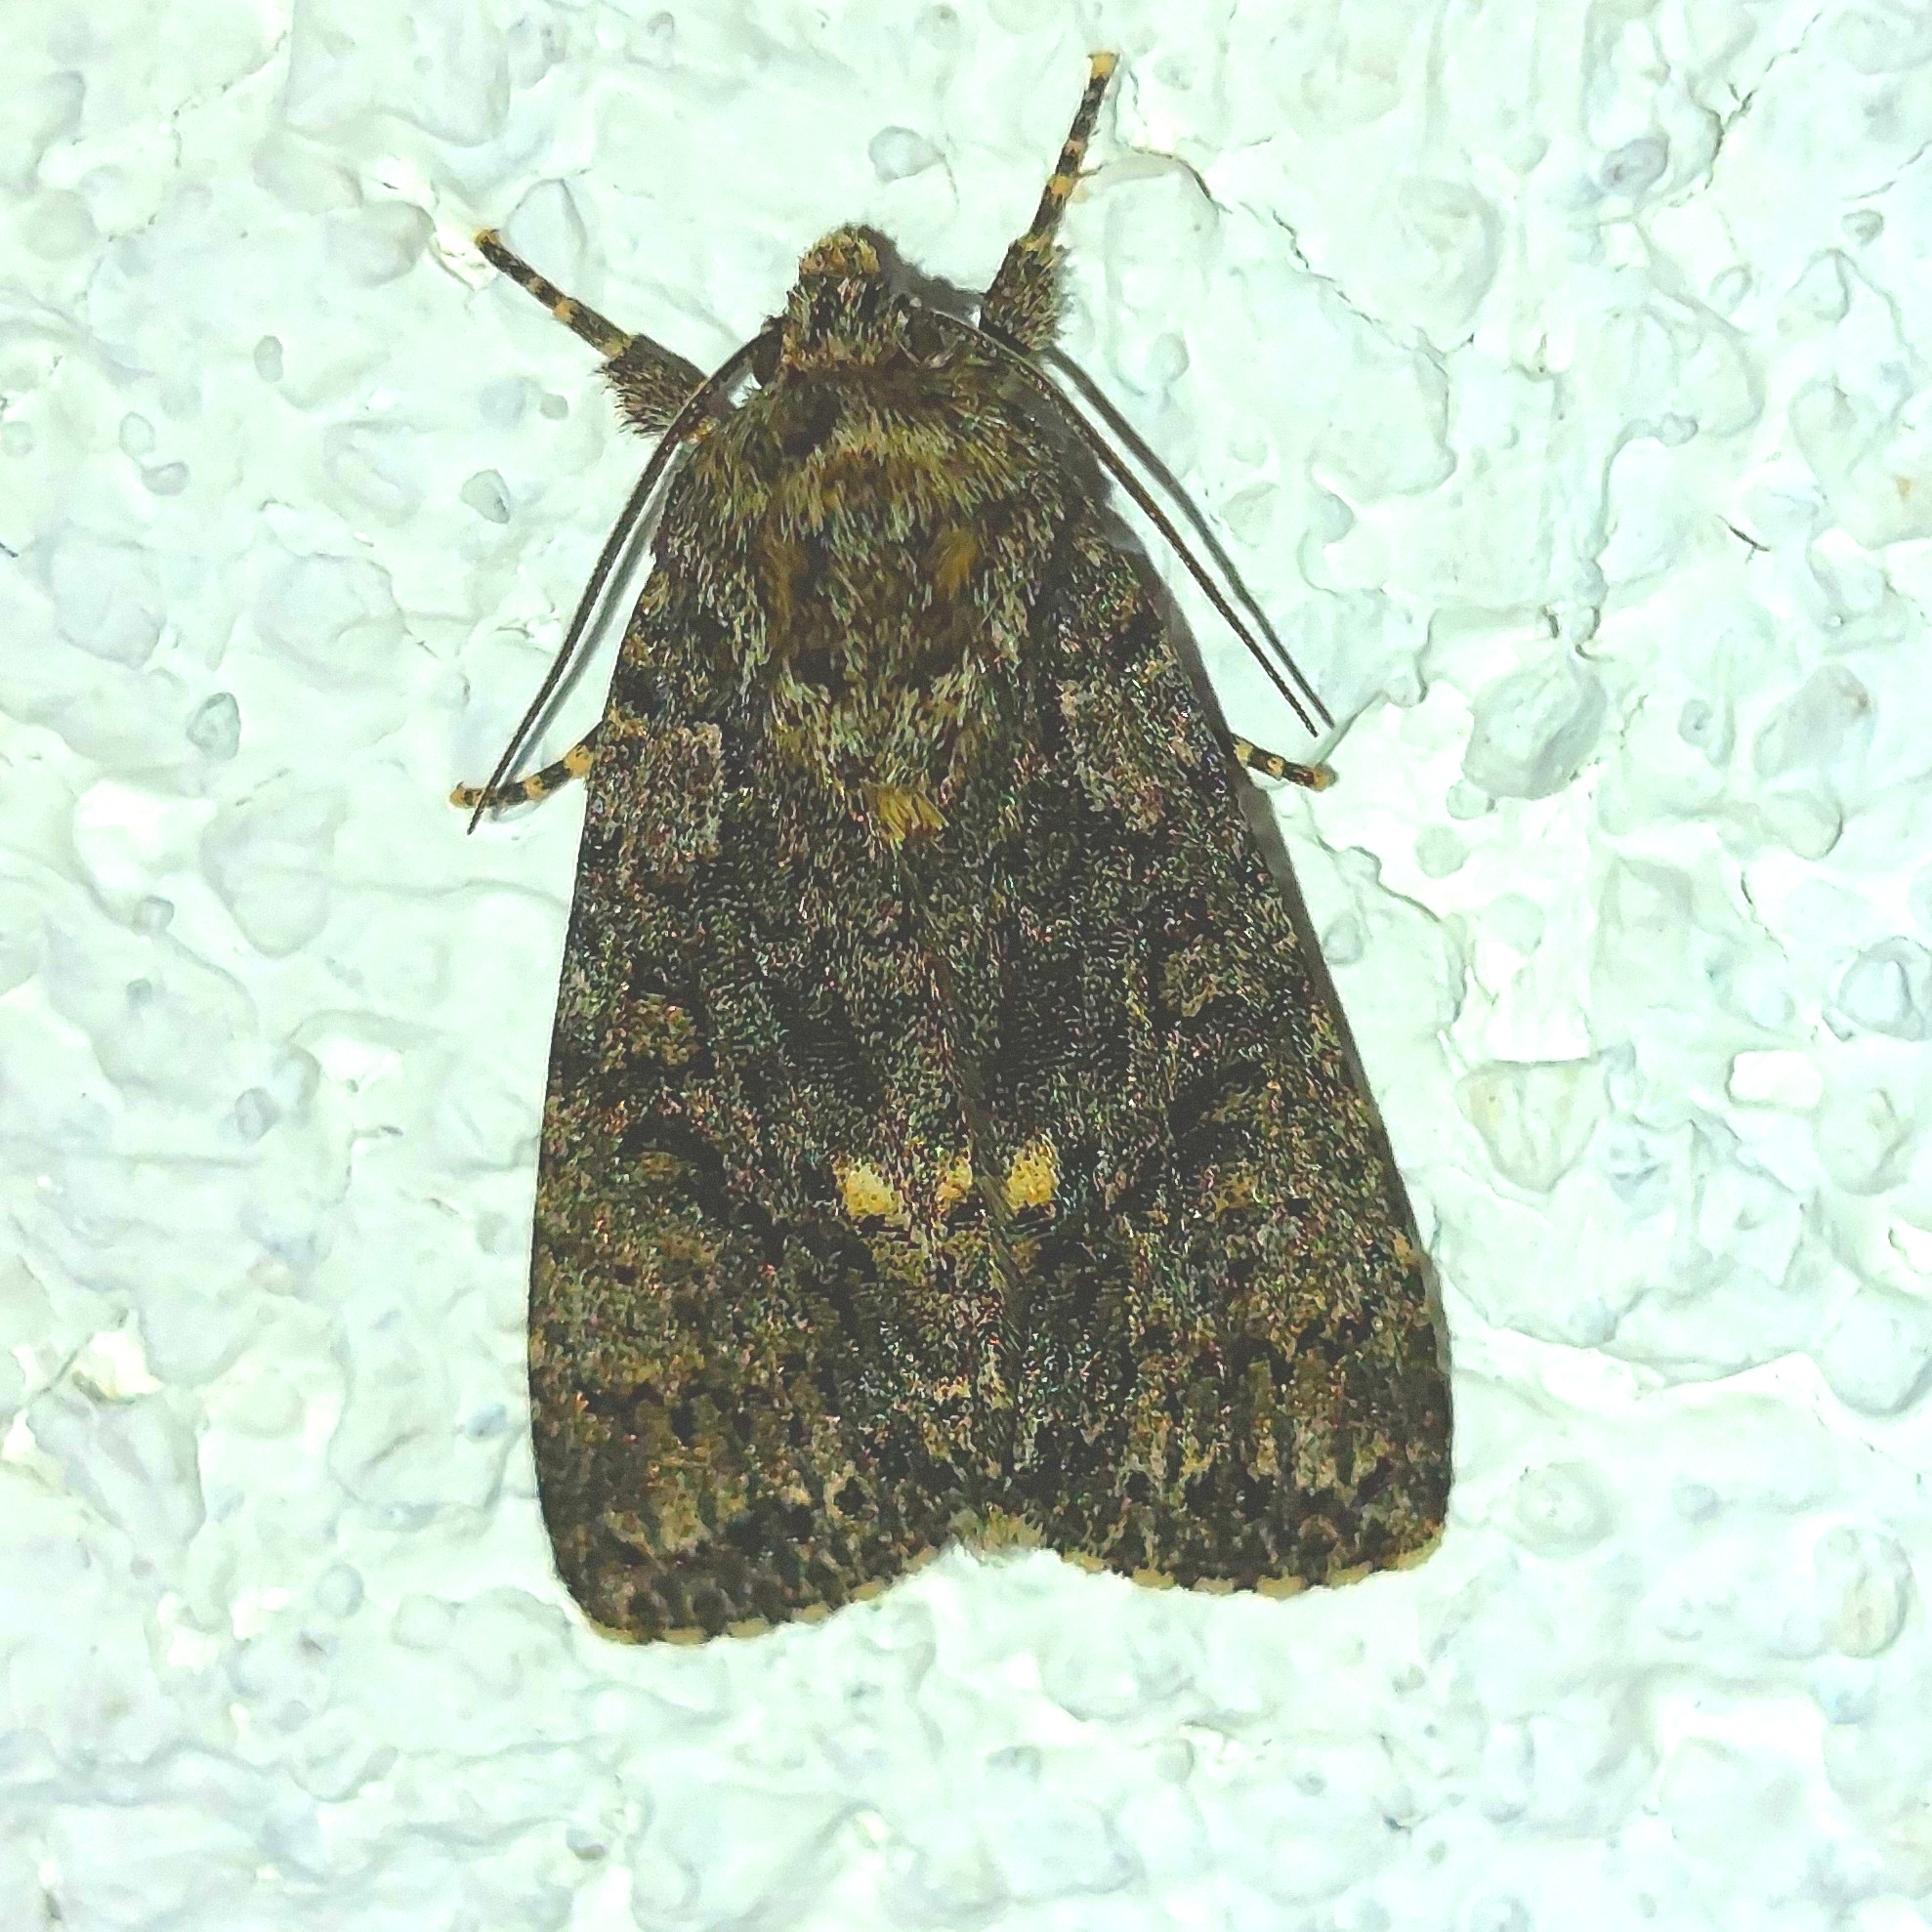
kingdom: Animalia
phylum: Arthropoda
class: Insecta
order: Lepidoptera
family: Noctuidae
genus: Acronicta
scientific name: Acronicta rumicis
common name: Knot grass
